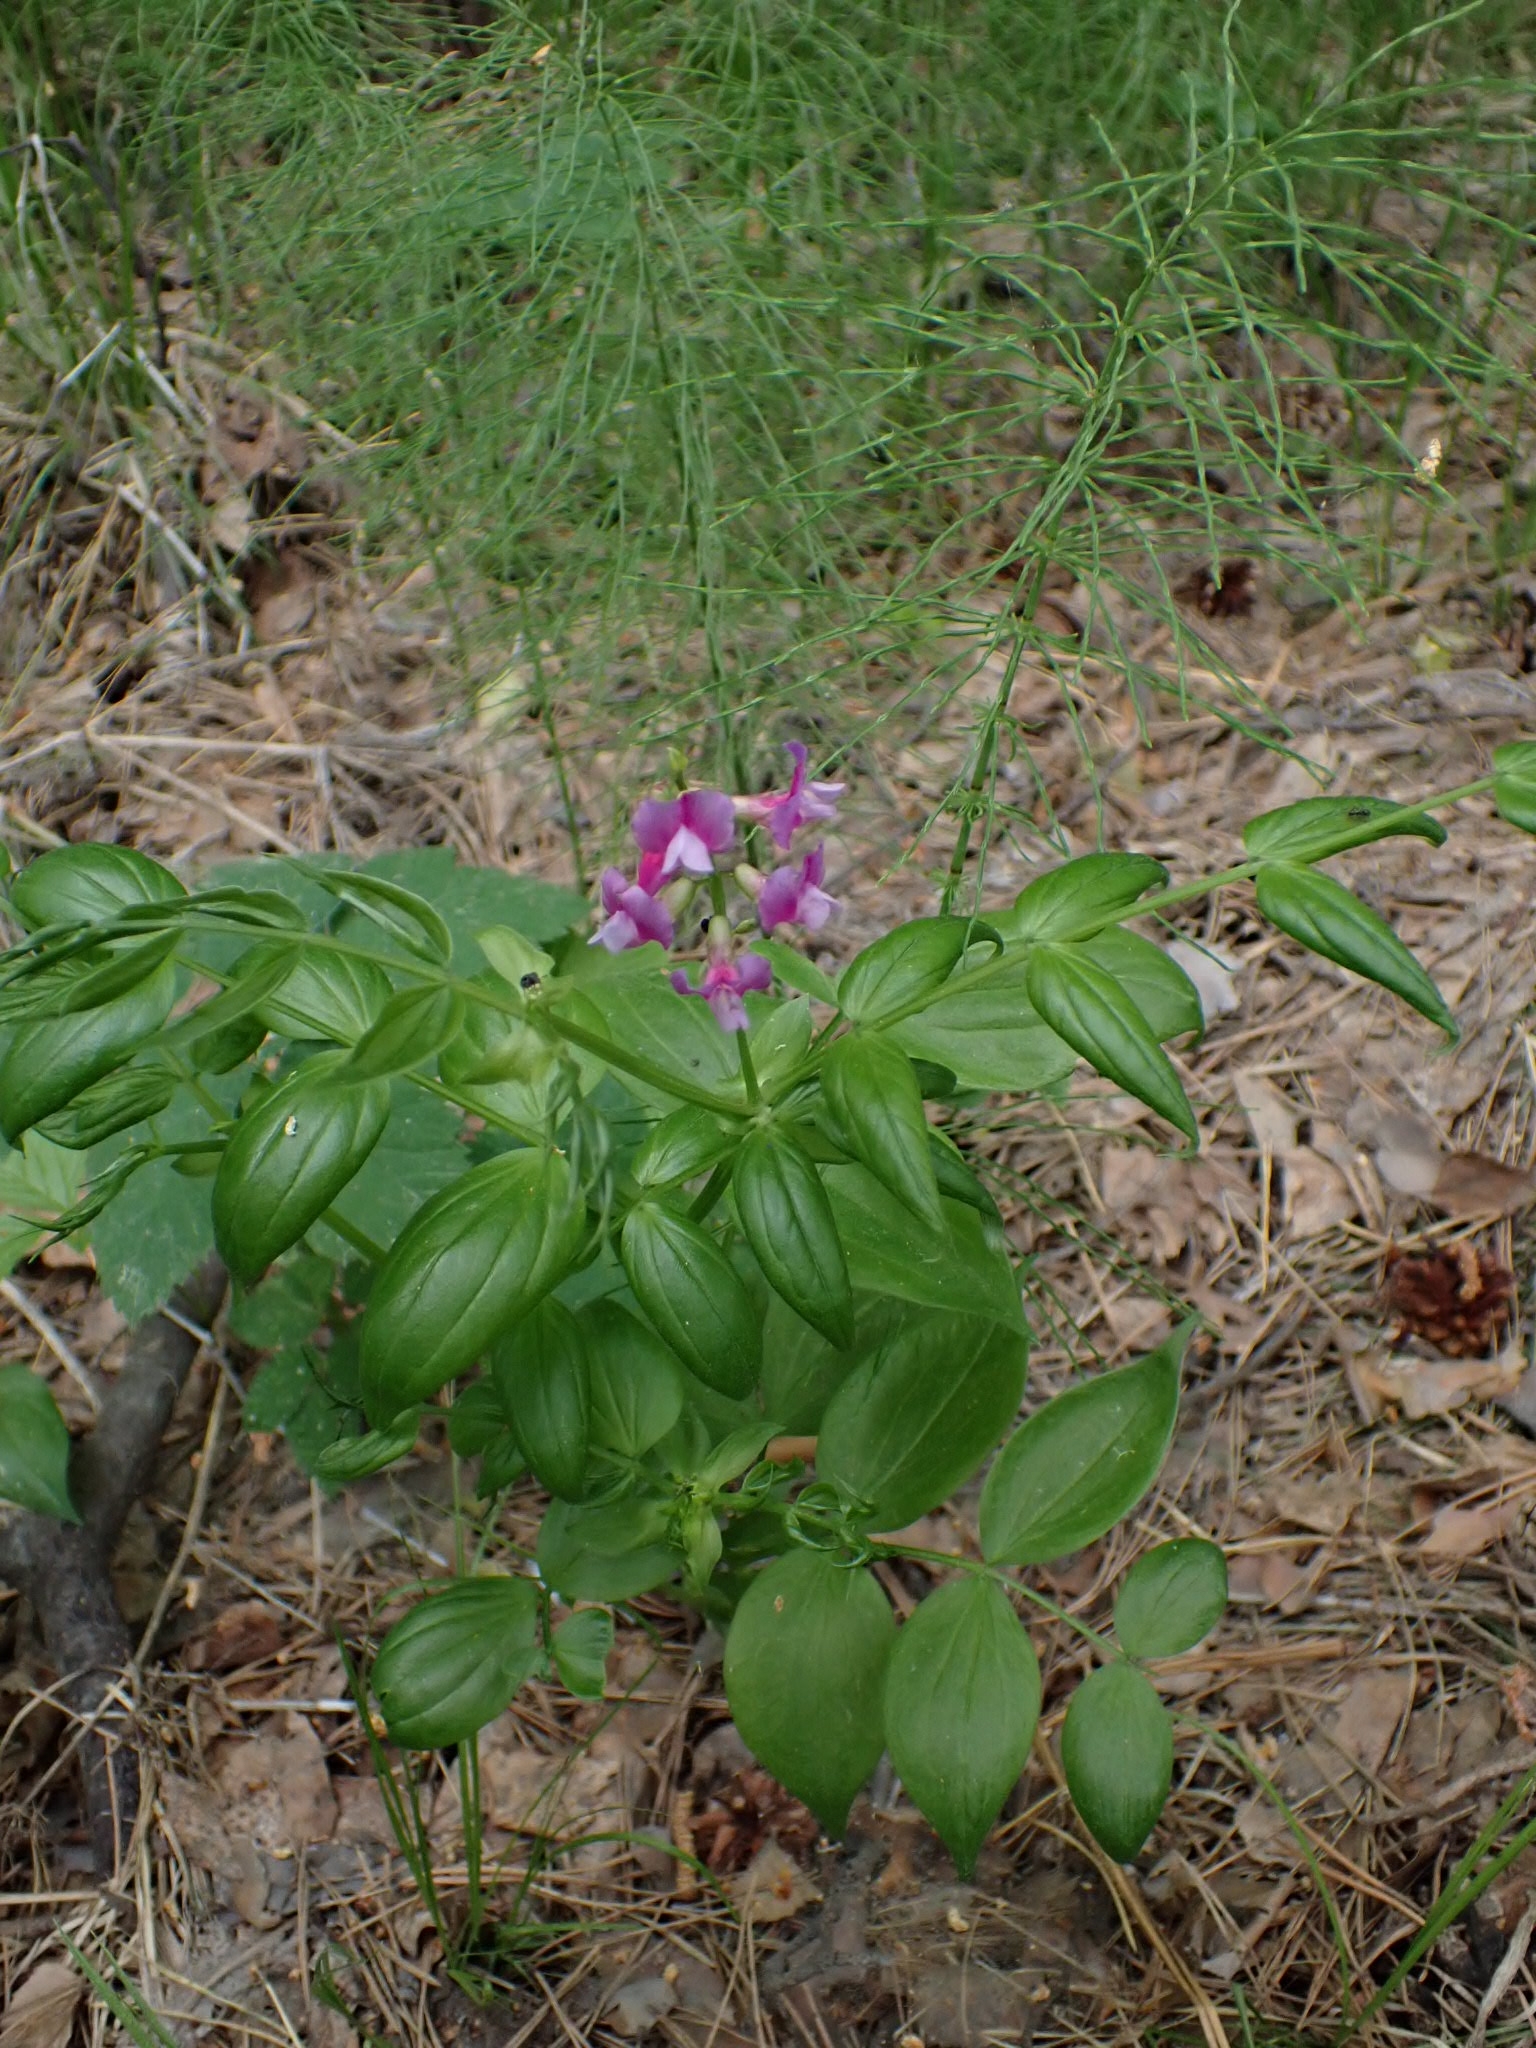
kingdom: Plantae
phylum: Tracheophyta
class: Magnoliopsida
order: Fabales
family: Fabaceae
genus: Lathyrus
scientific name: Lathyrus vernus
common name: Spring pea
